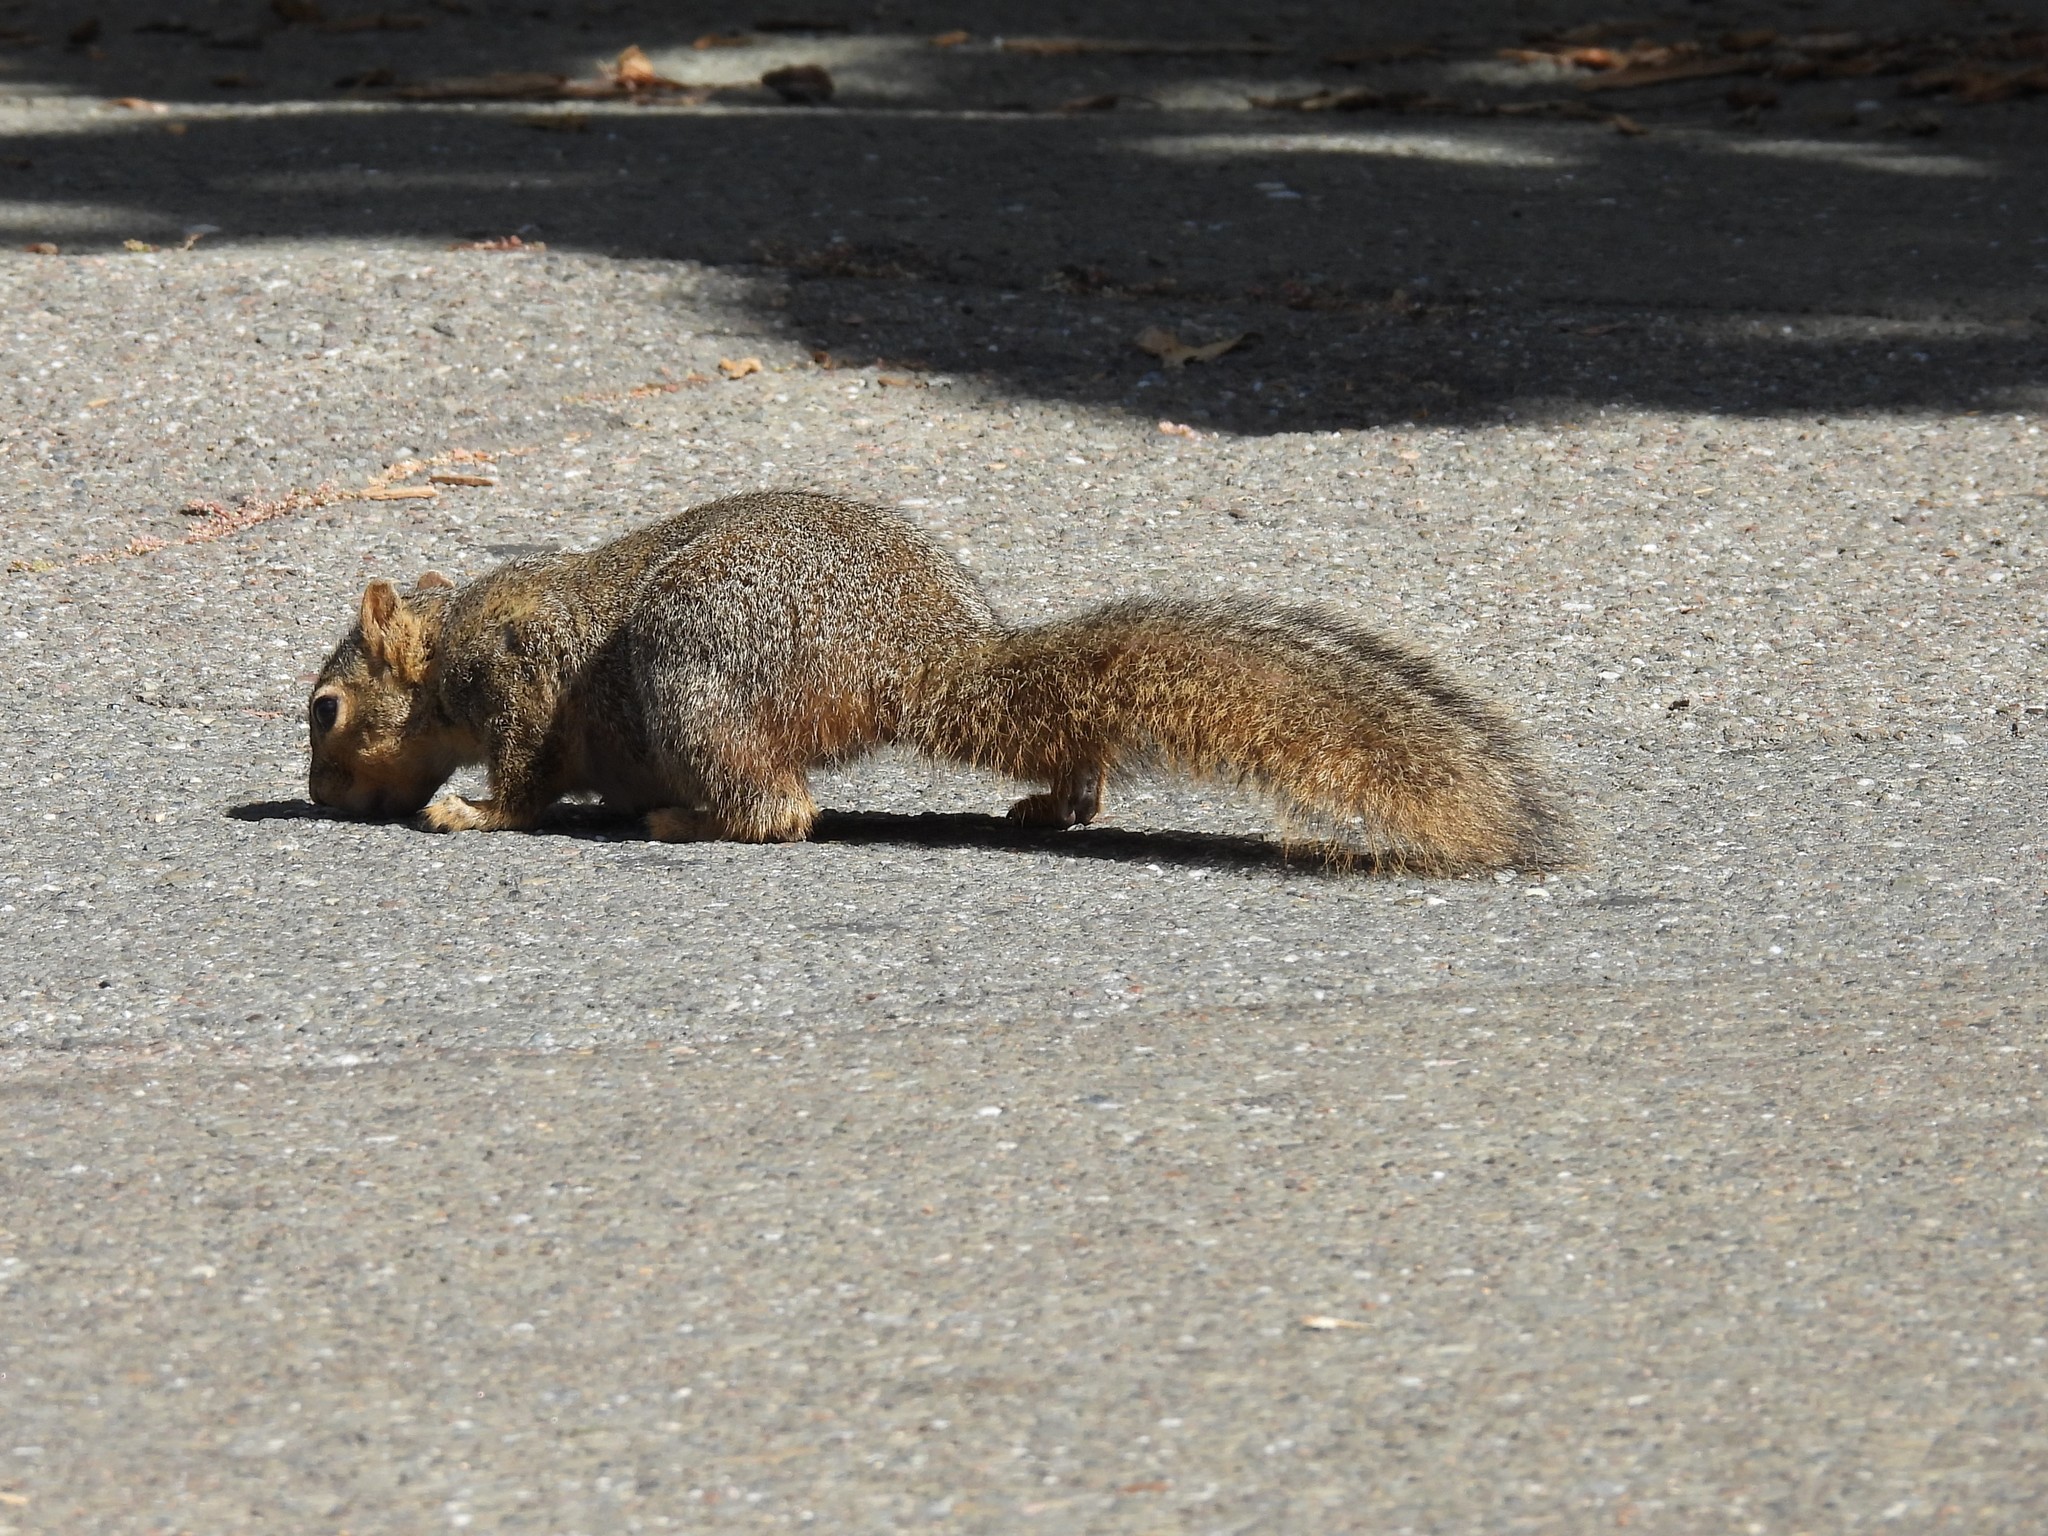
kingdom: Animalia
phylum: Chordata
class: Mammalia
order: Rodentia
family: Sciuridae
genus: Sciurus
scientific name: Sciurus niger
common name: Fox squirrel
